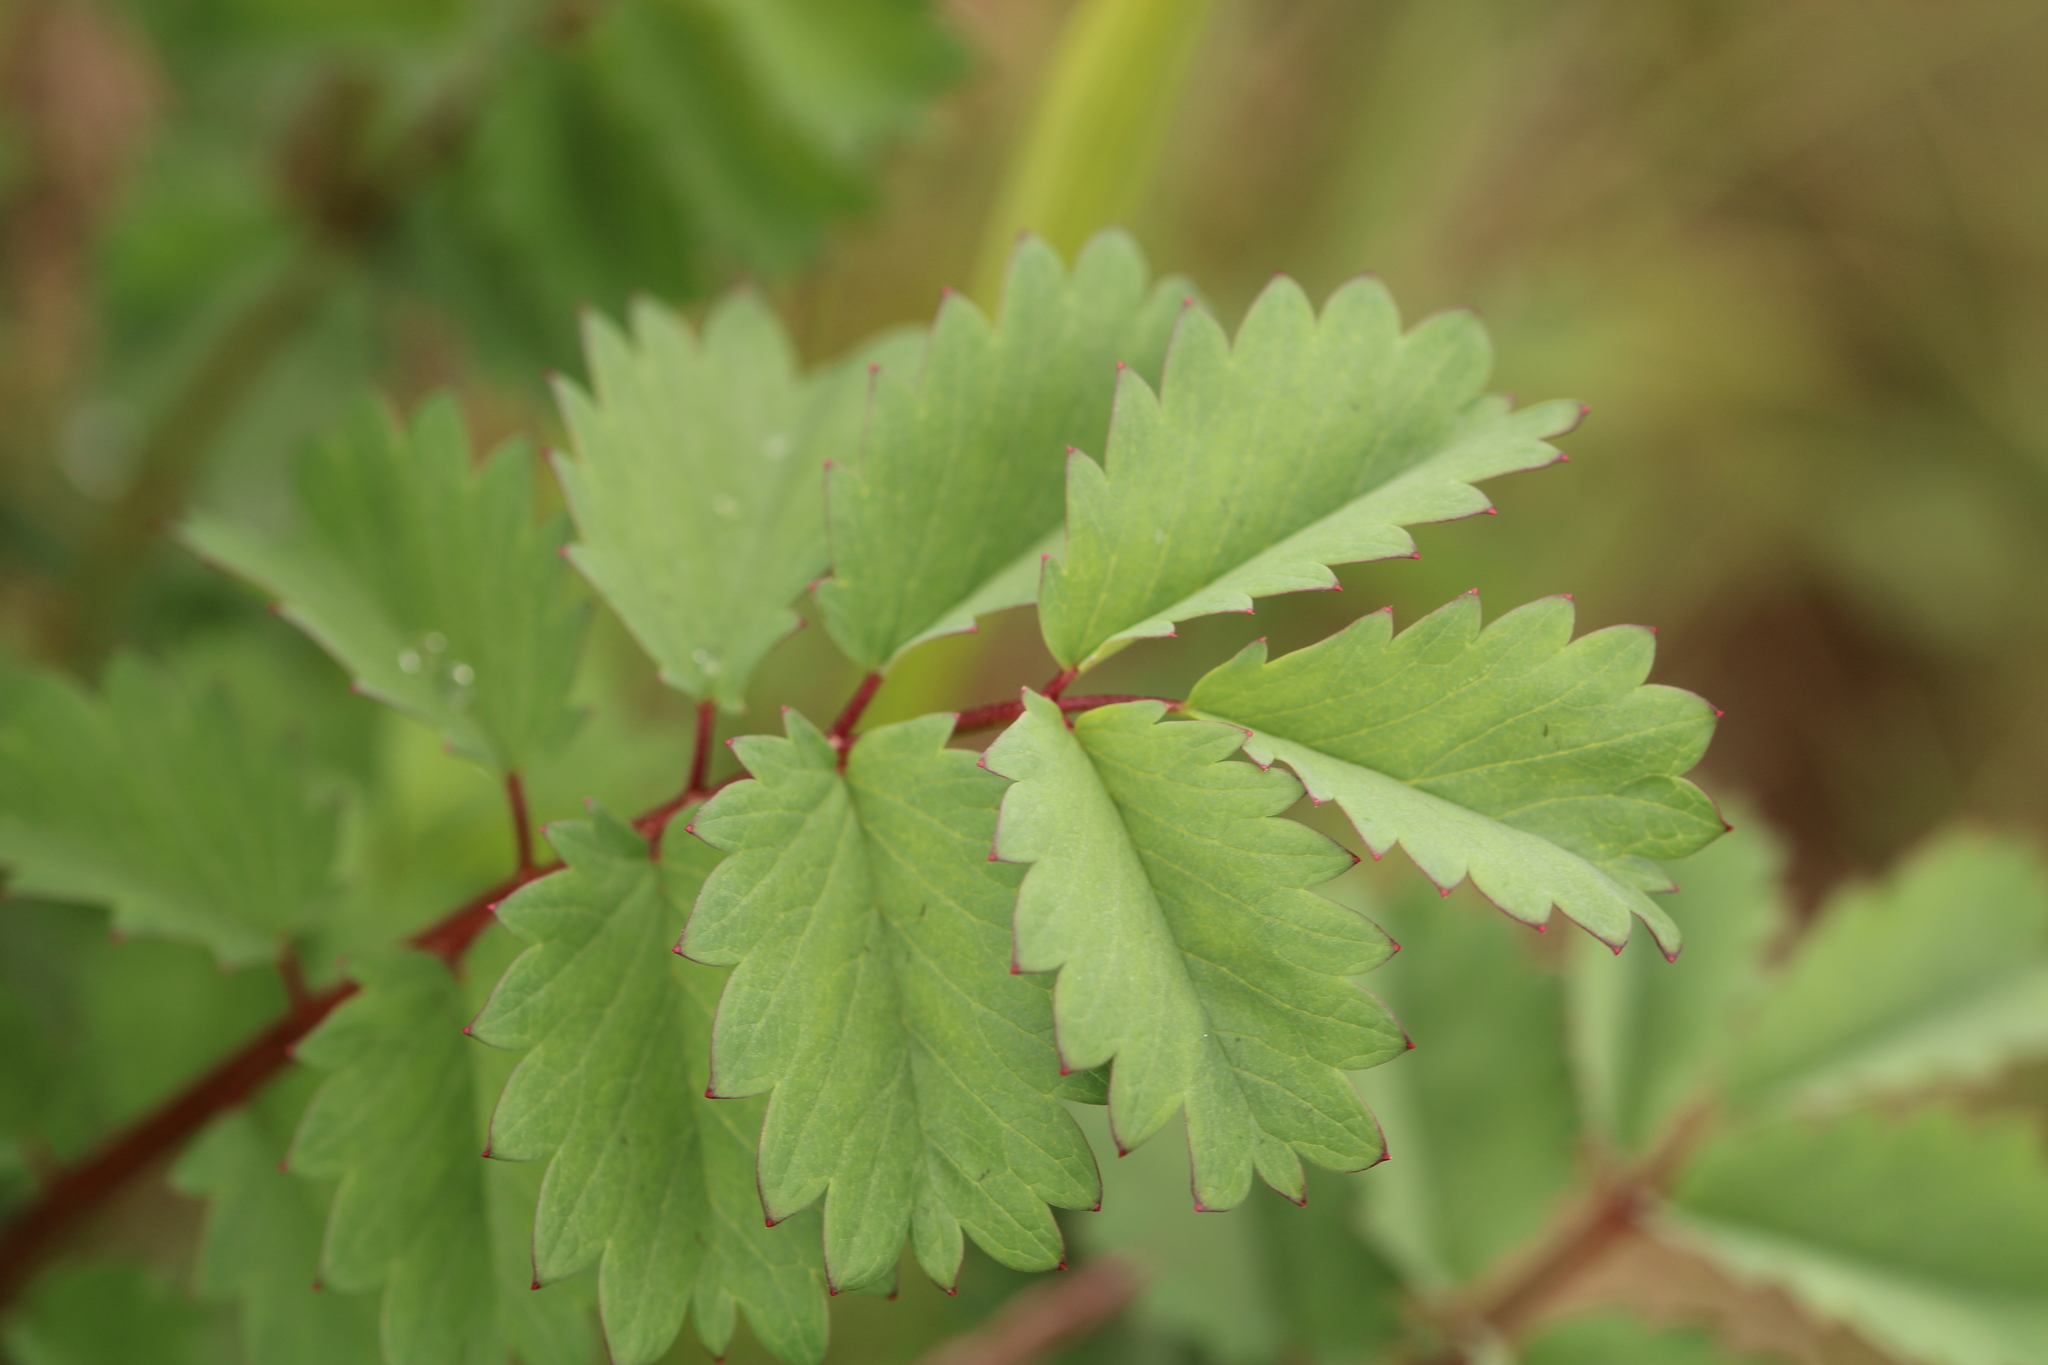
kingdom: Plantae
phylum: Tracheophyta
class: Magnoliopsida
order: Rosales
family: Rosaceae
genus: Poterium
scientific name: Poterium sanguisorba
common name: Salad burnet
